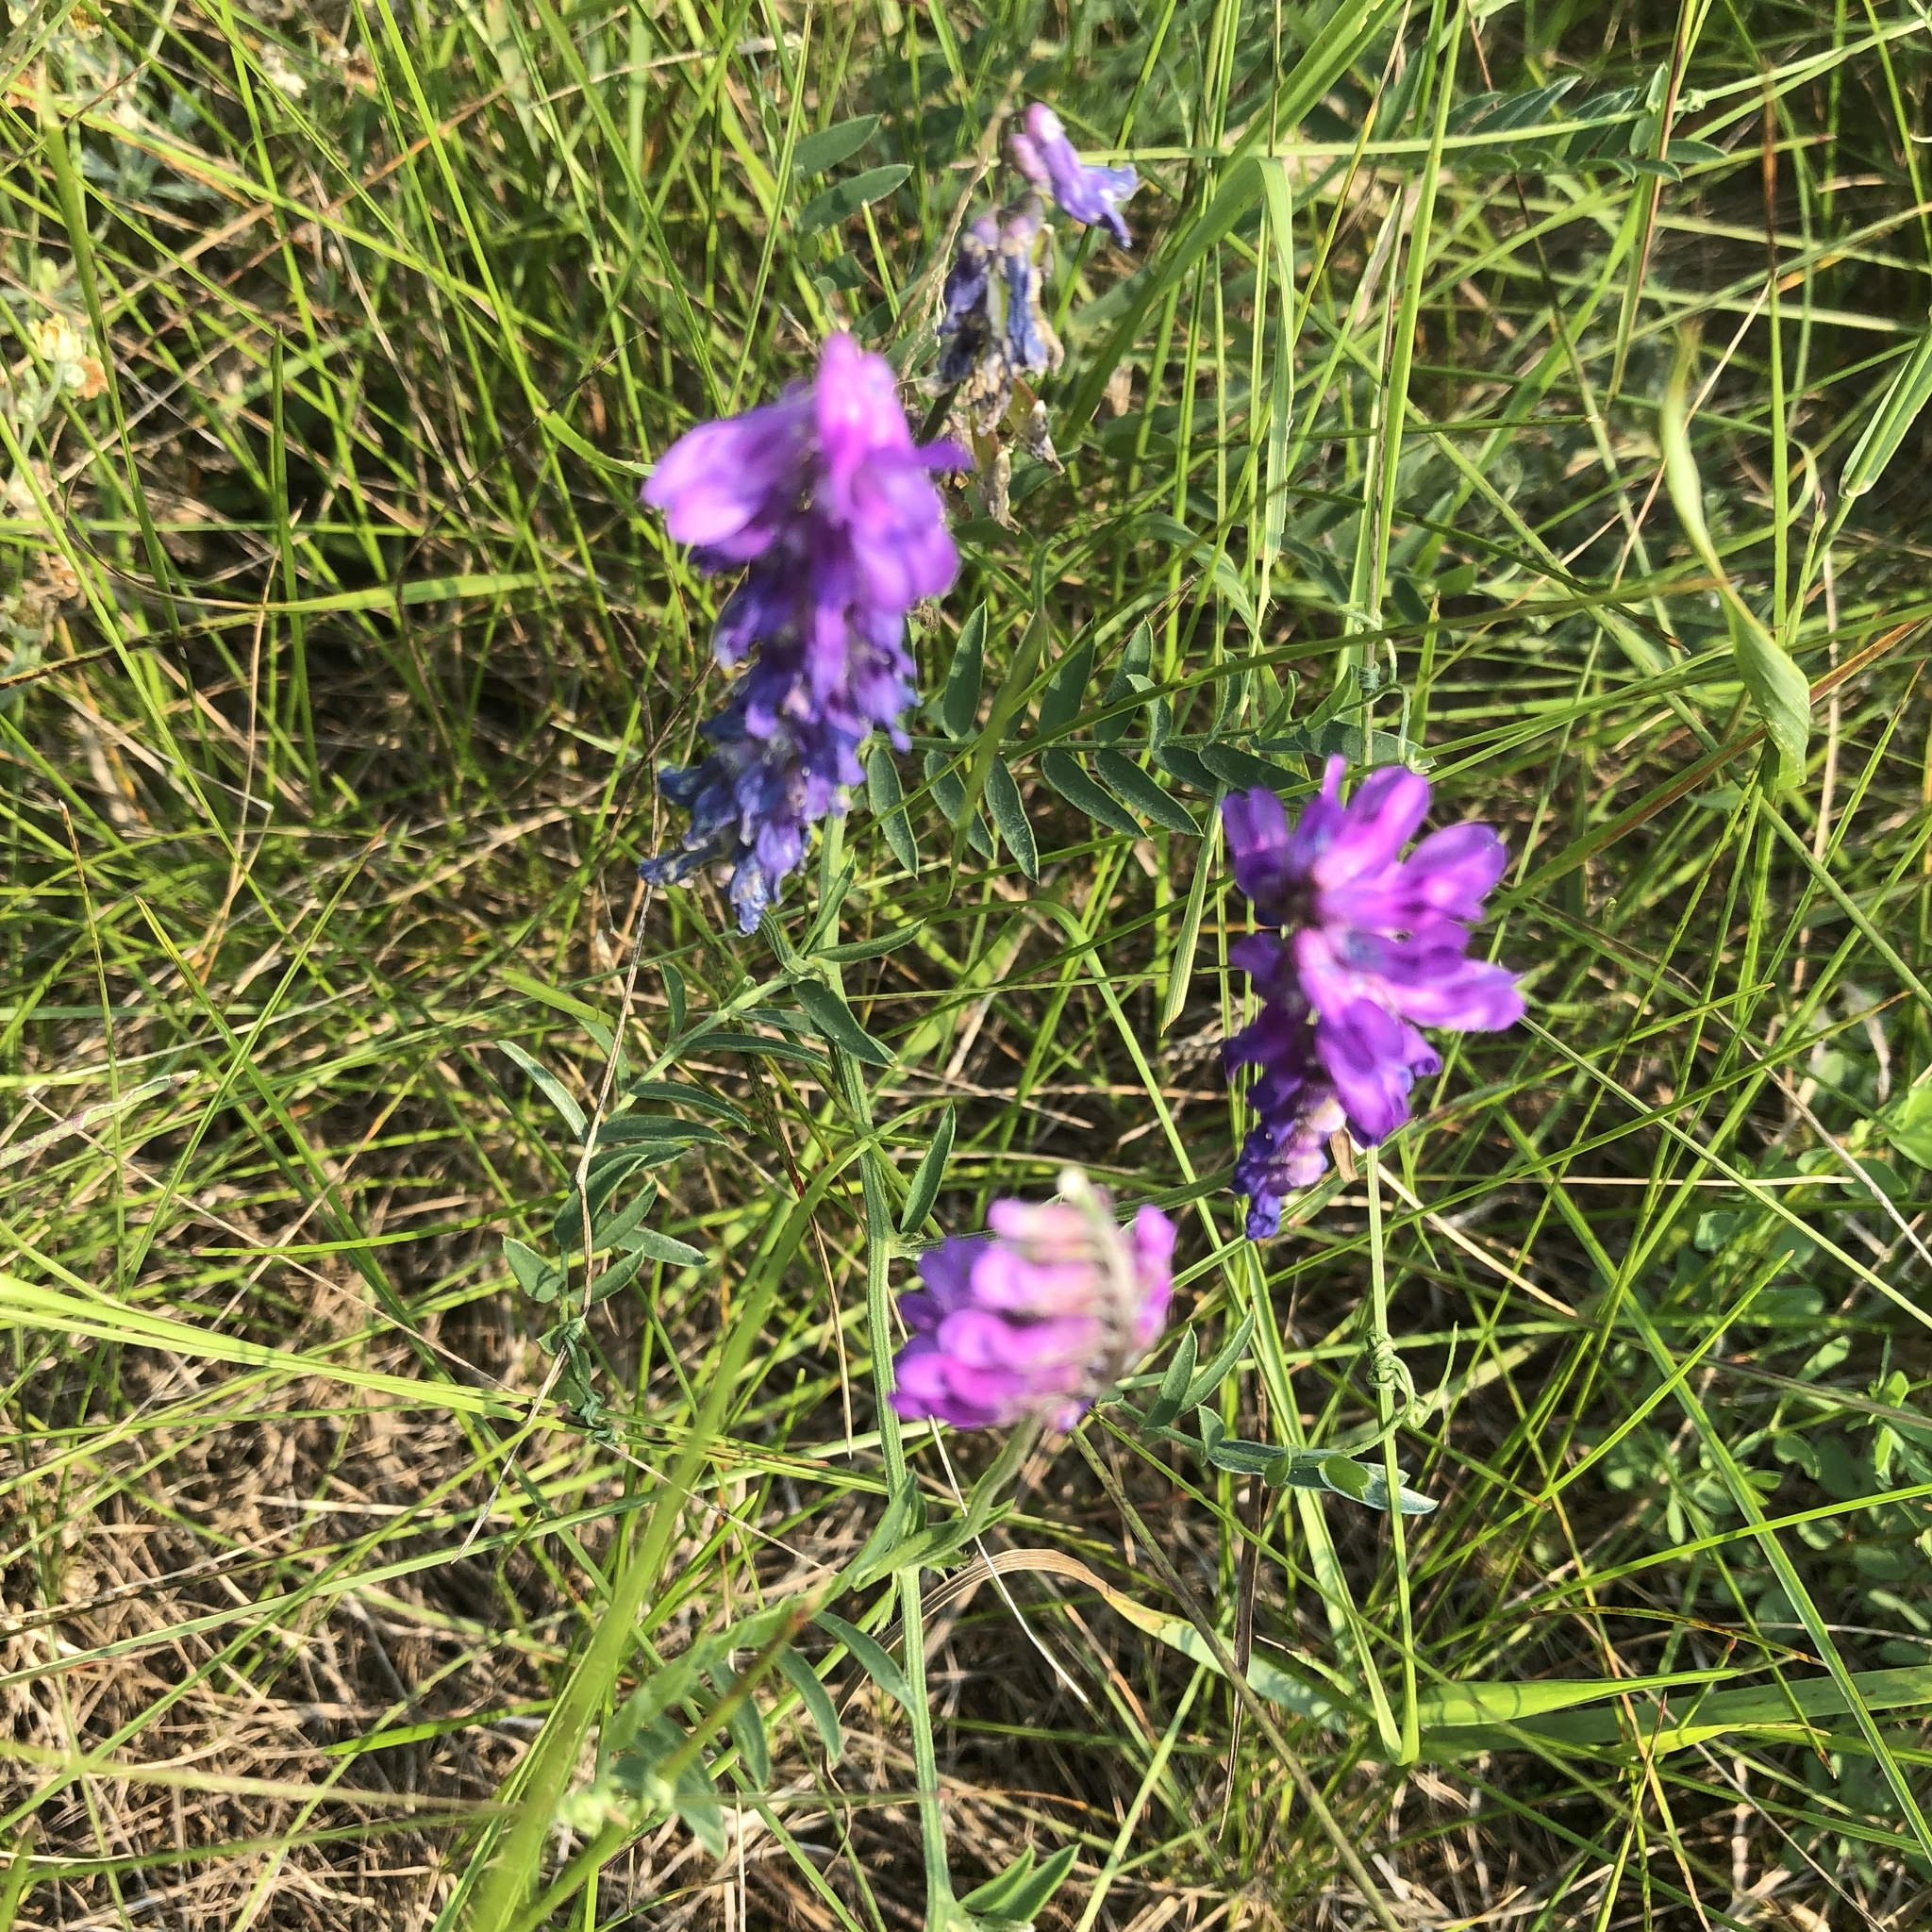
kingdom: Plantae
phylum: Tracheophyta
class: Magnoliopsida
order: Fabales
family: Fabaceae
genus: Vicia
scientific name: Vicia cracca
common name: Bird vetch
